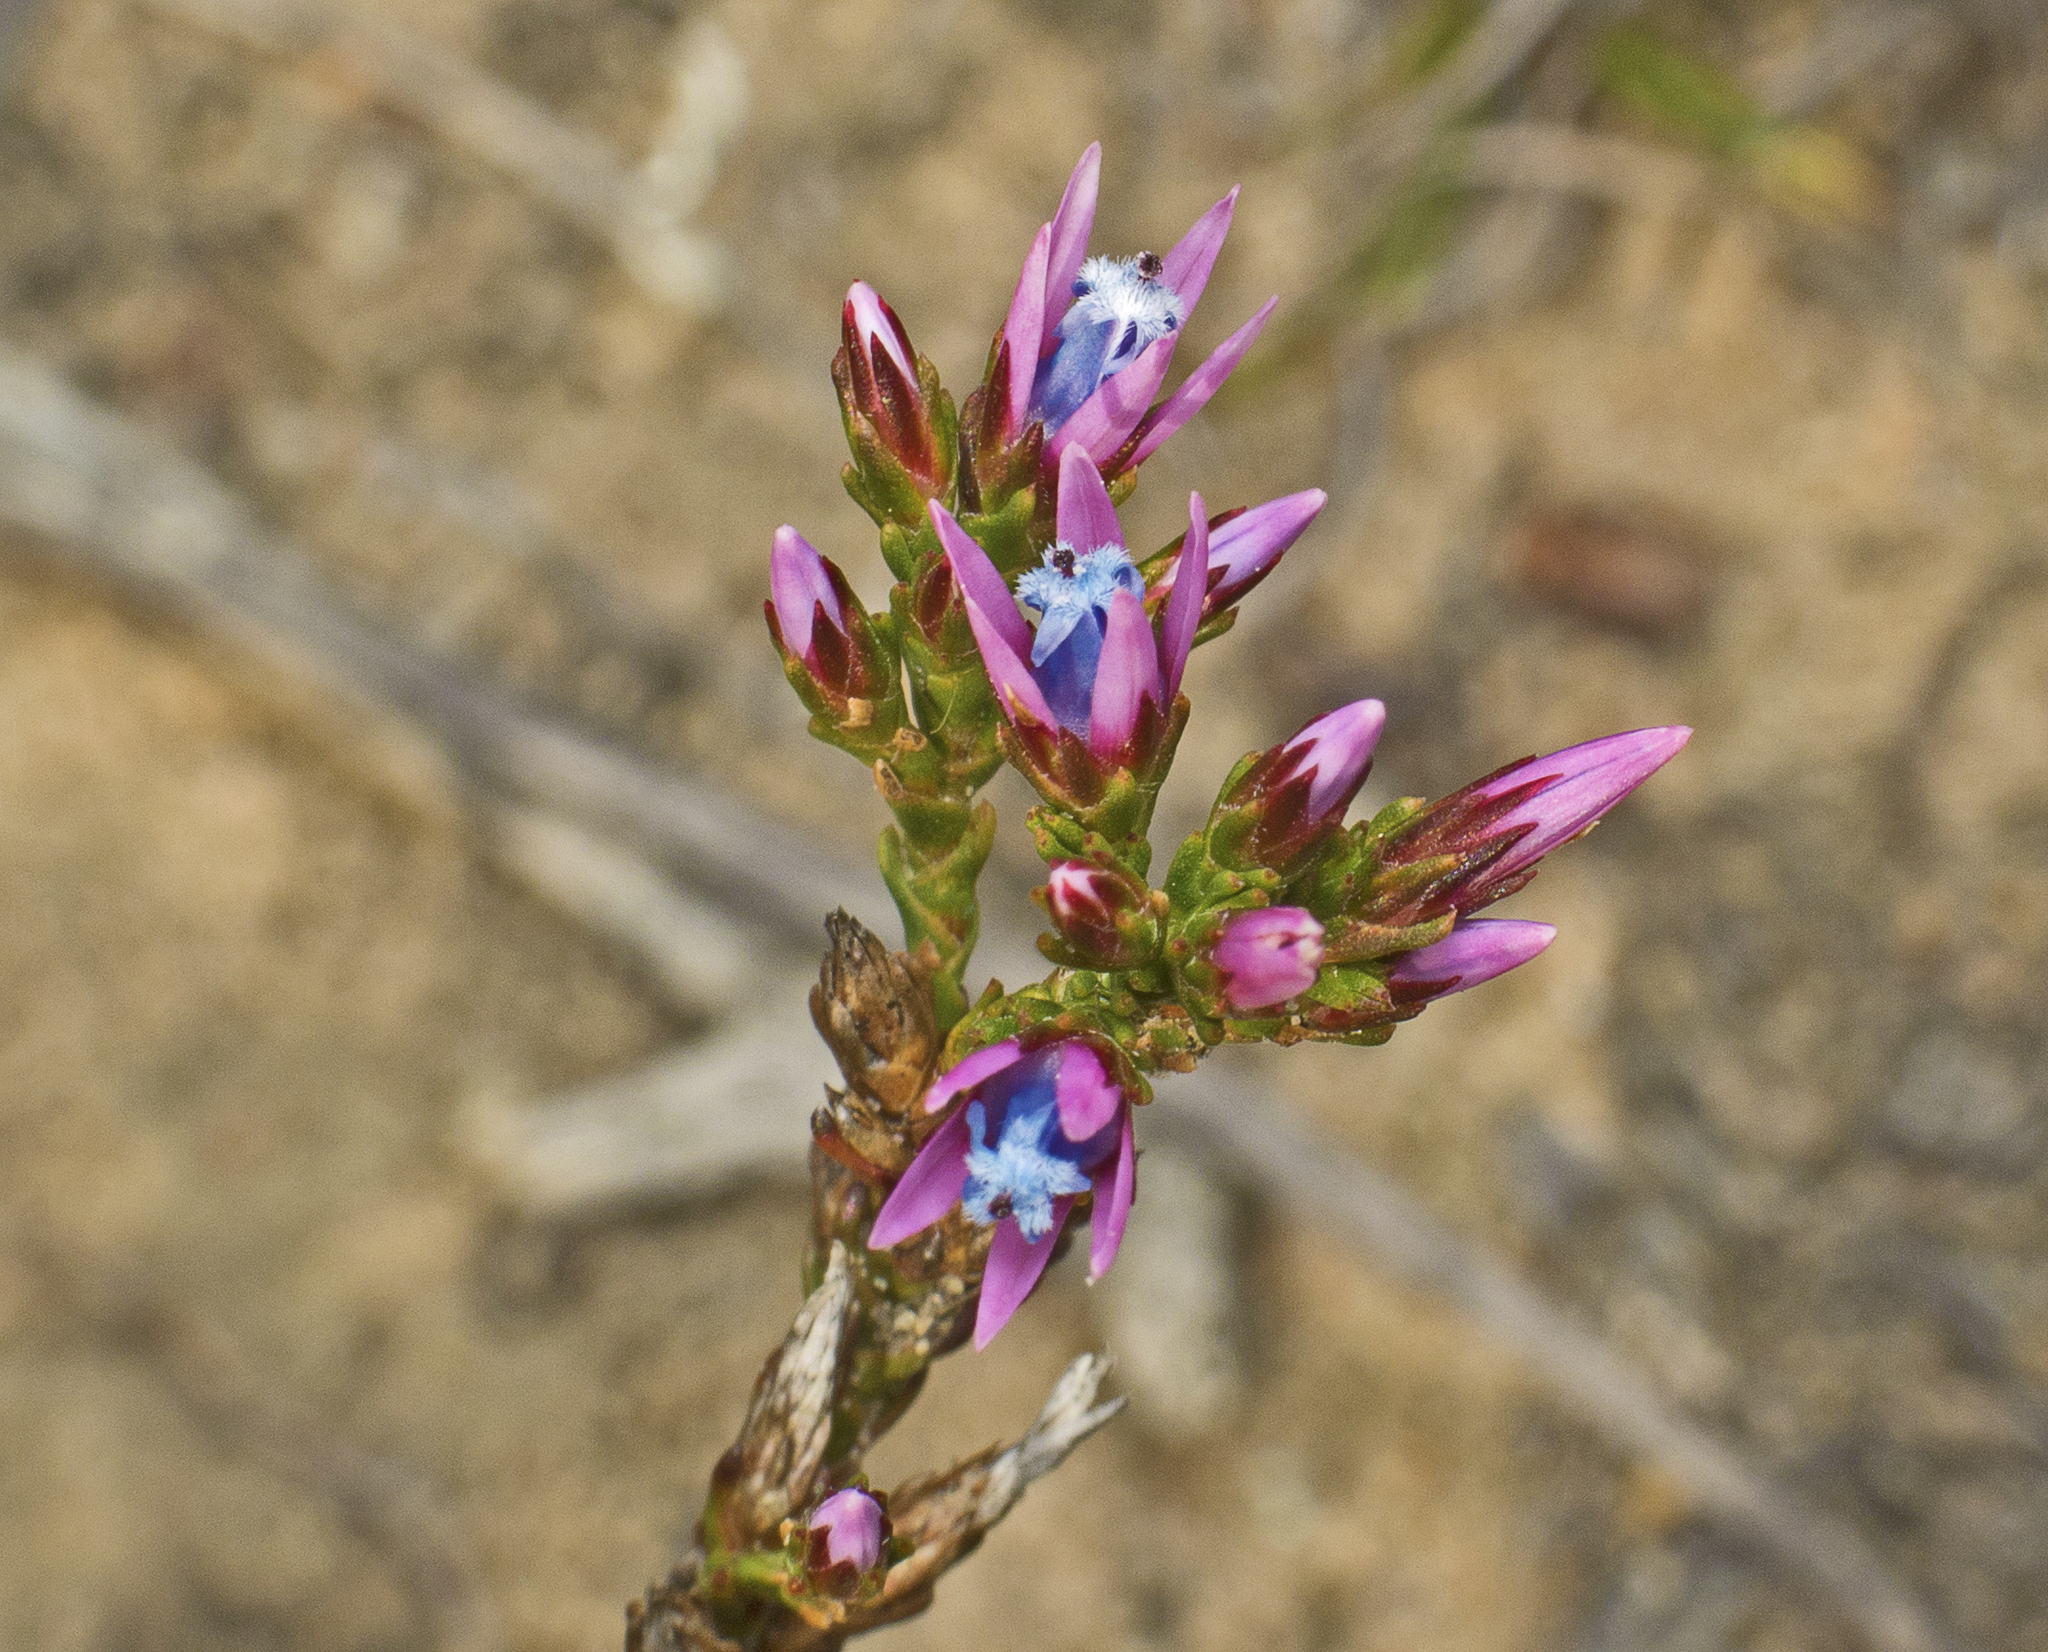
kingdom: Plantae
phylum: Tracheophyta
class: Magnoliopsida
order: Ericales
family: Ericaceae
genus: Andersonia
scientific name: Andersonia caerulea
